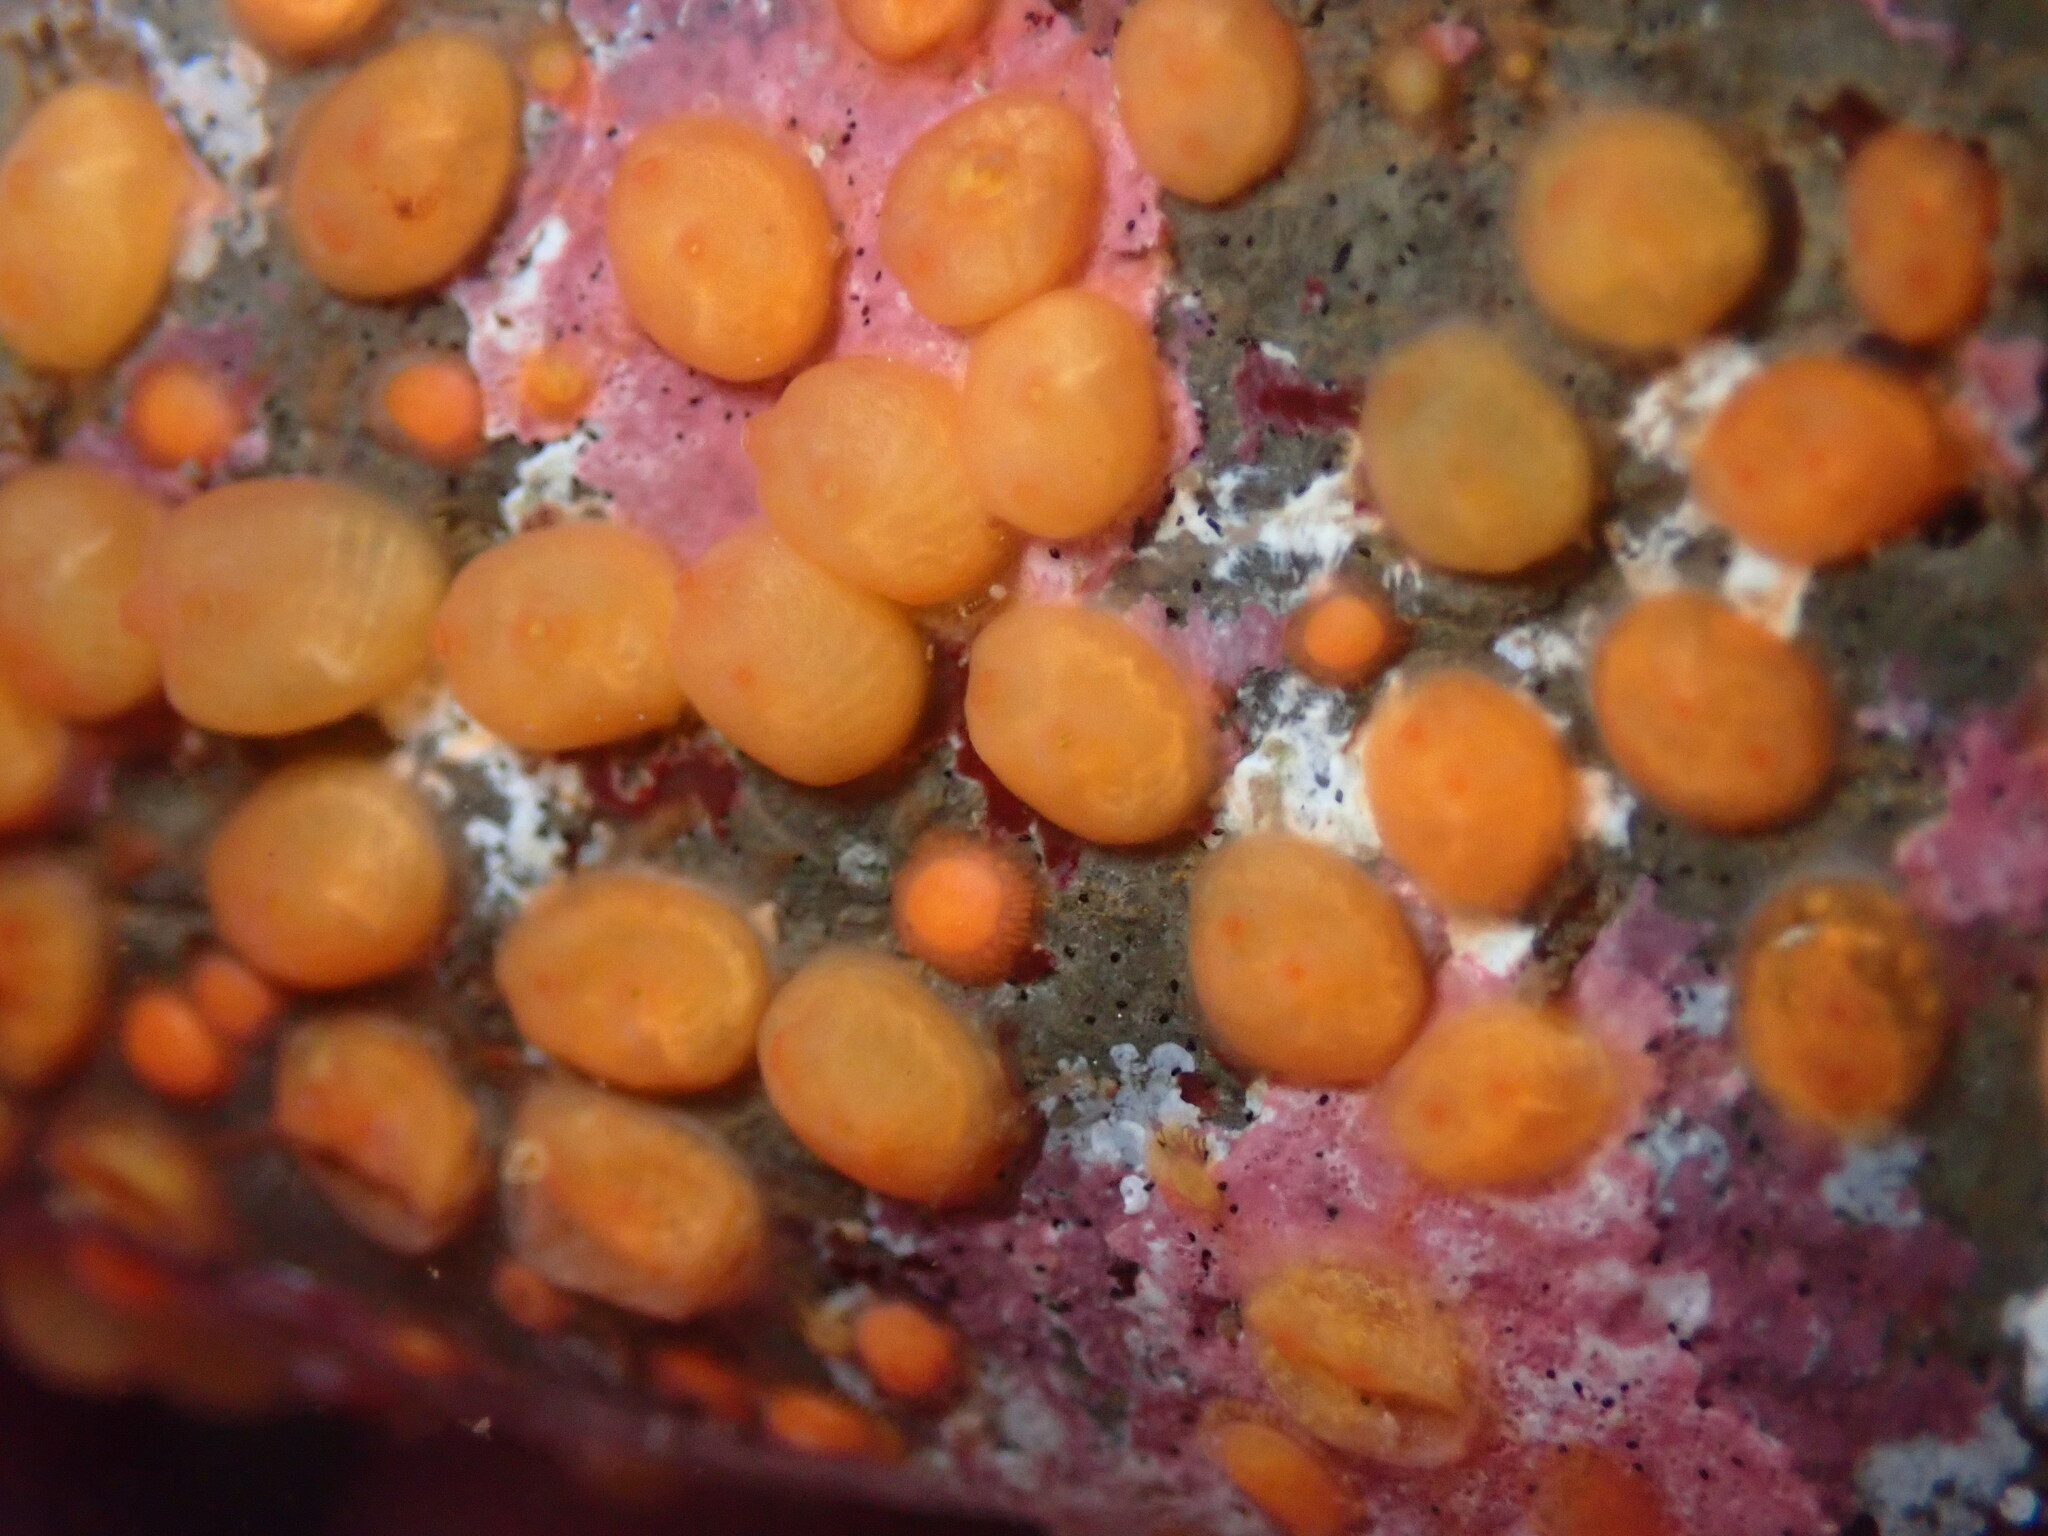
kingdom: Animalia
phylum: Chordata
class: Ascidiacea
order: Stolidobranchia
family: Styelidae
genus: Metandrocarpa
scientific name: Metandrocarpa taylori
